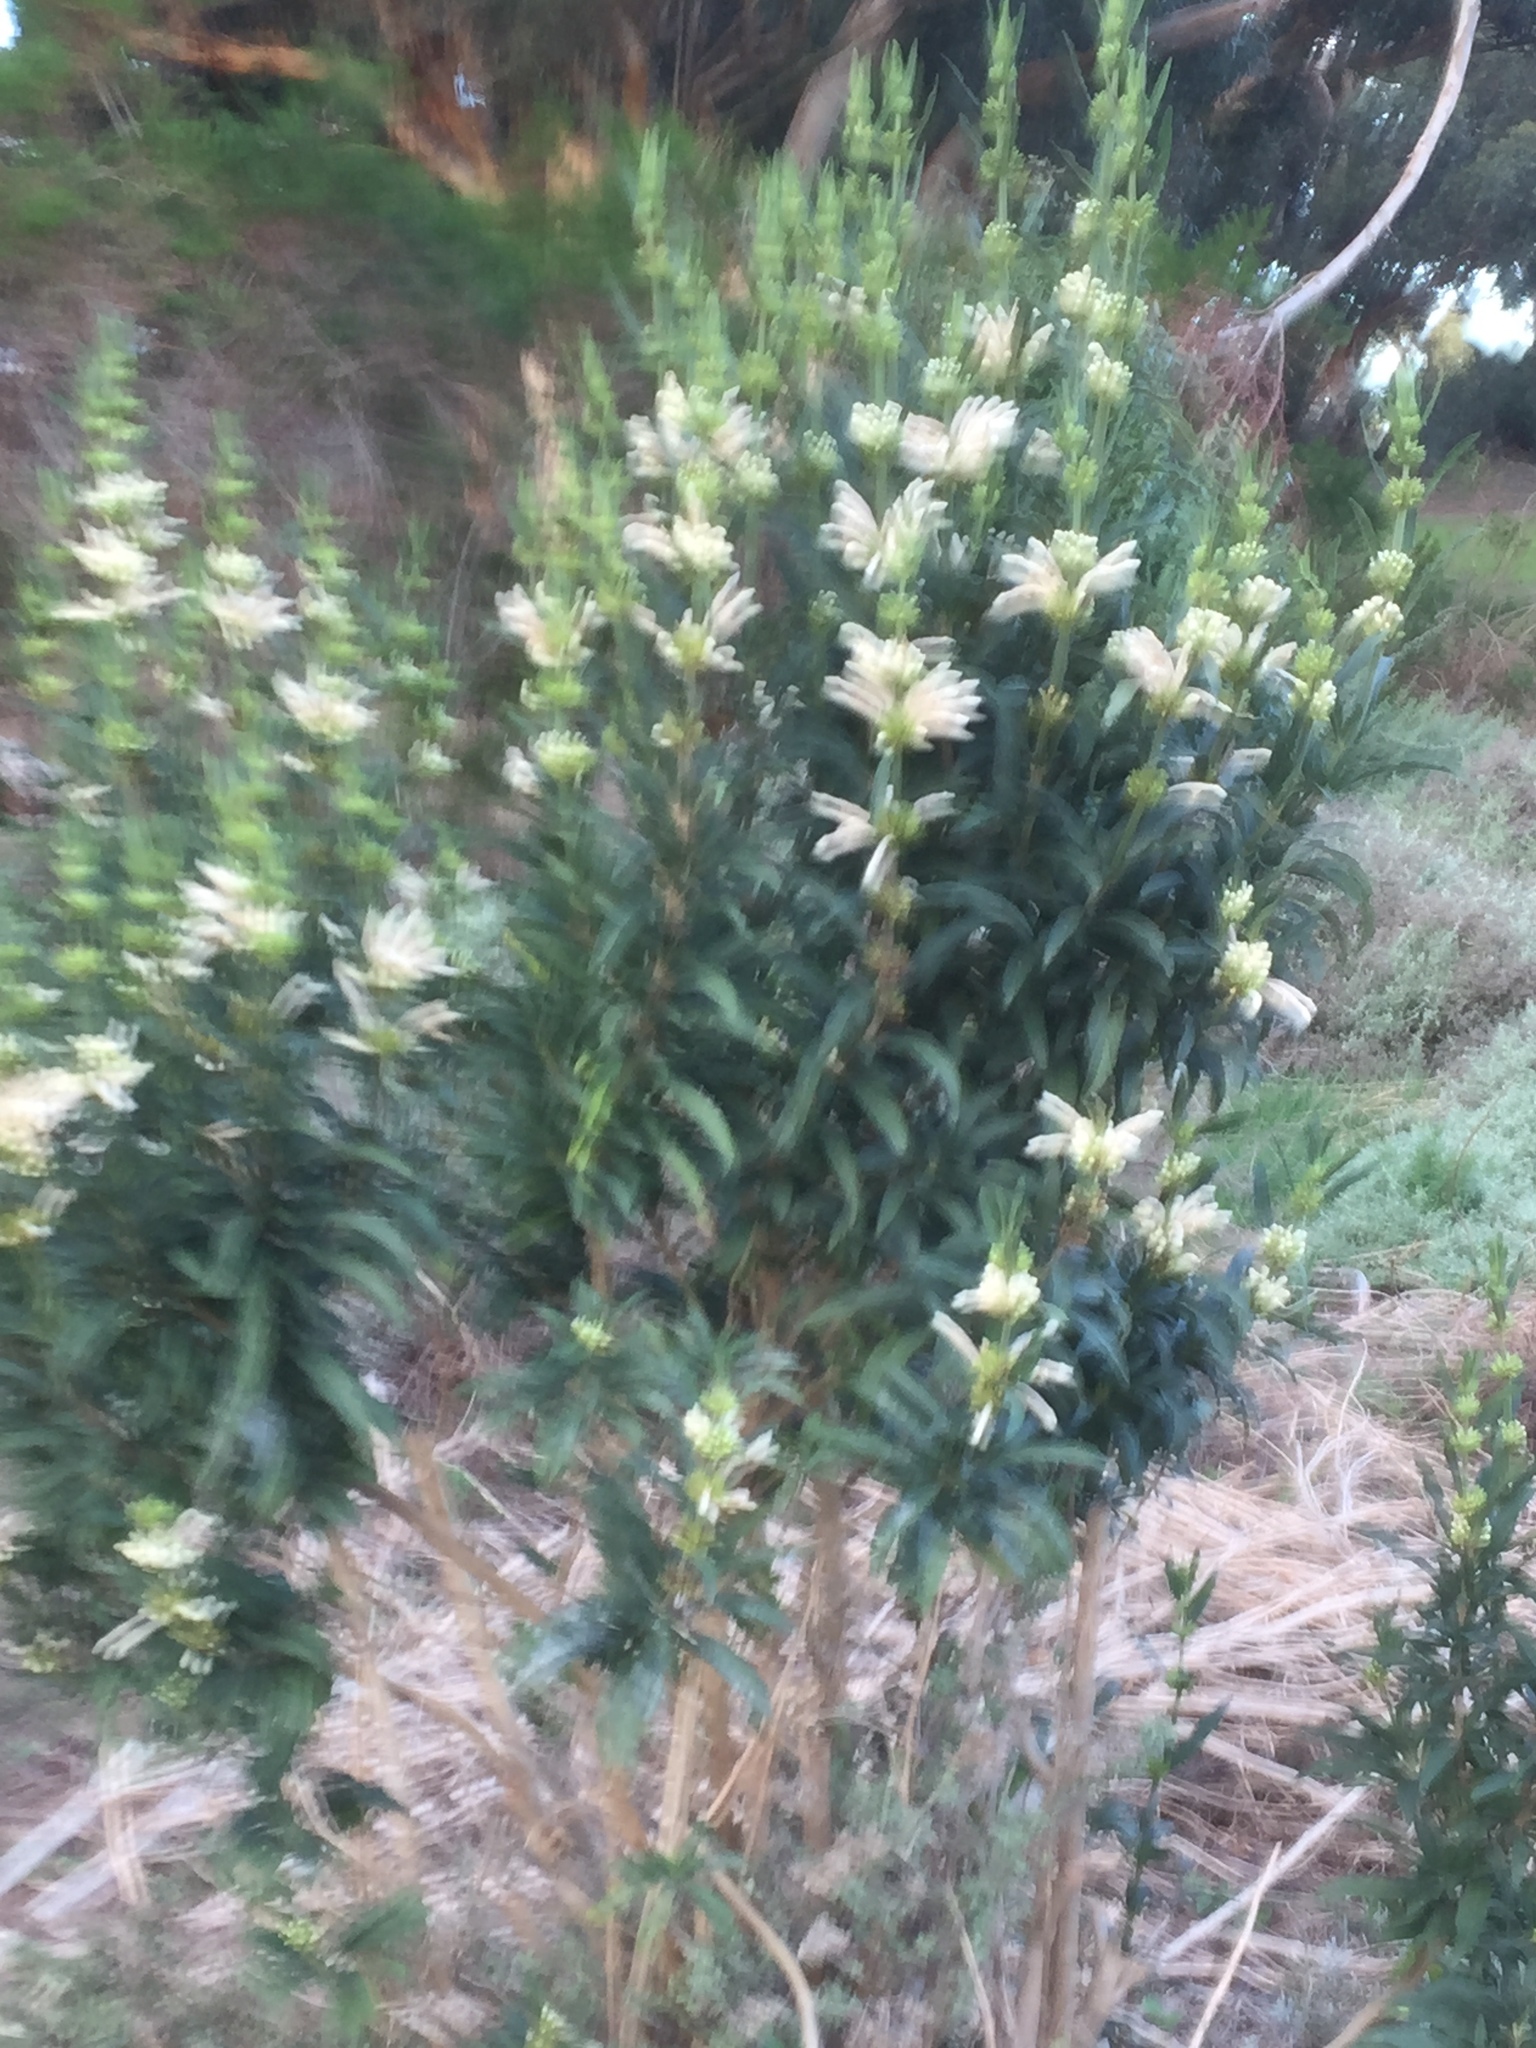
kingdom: Plantae
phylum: Tracheophyta
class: Magnoliopsida
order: Lamiales
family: Lamiaceae
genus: Leonotis
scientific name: Leonotis leonurus
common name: Lion's ear
